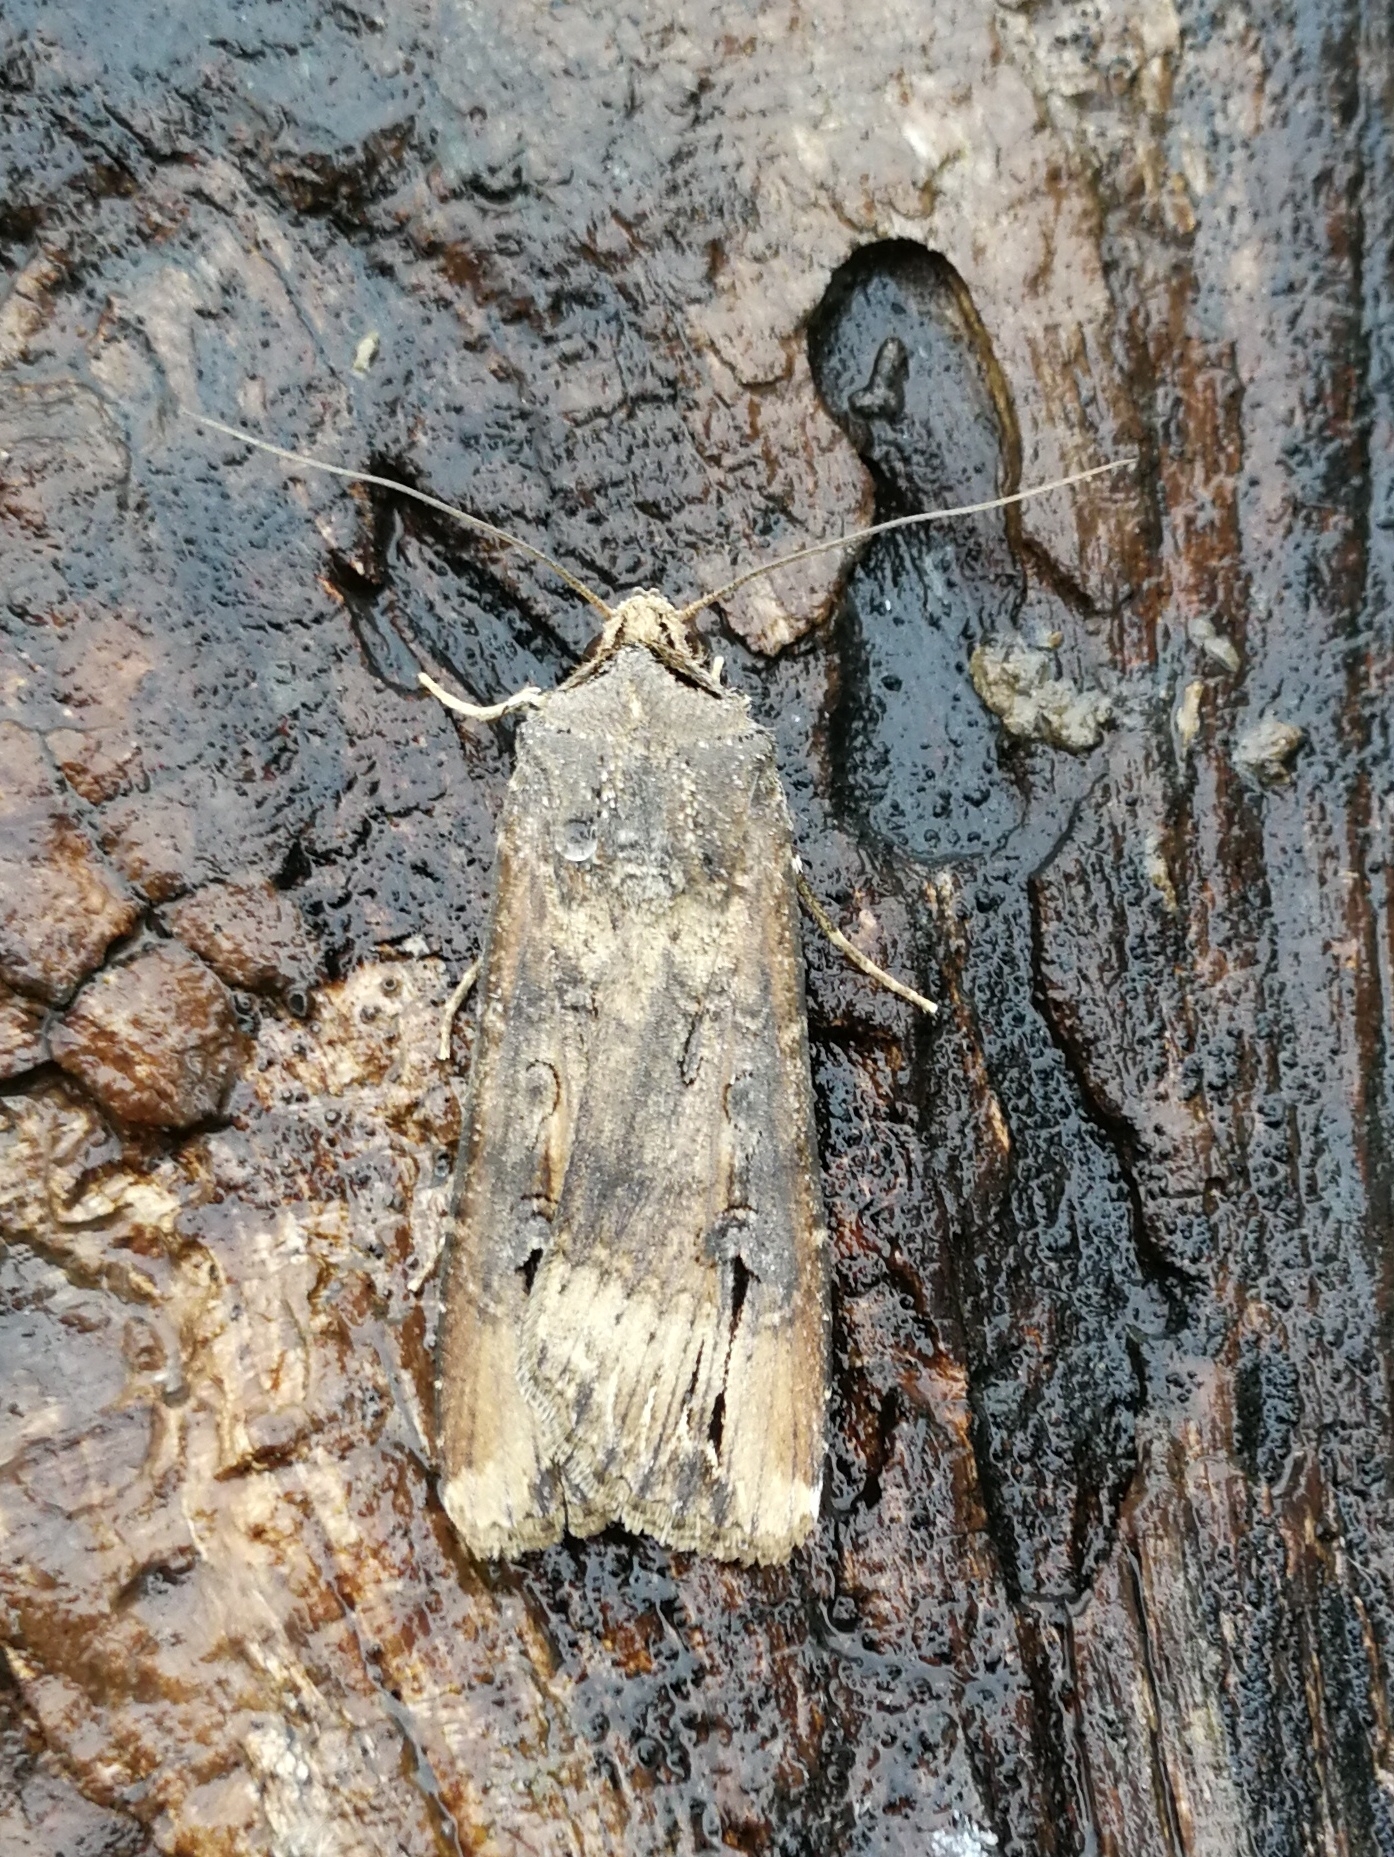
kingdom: Animalia
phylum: Arthropoda
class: Insecta
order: Lepidoptera
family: Noctuidae
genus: Agrotis
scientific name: Agrotis ipsilon
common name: Dark sword-grass
